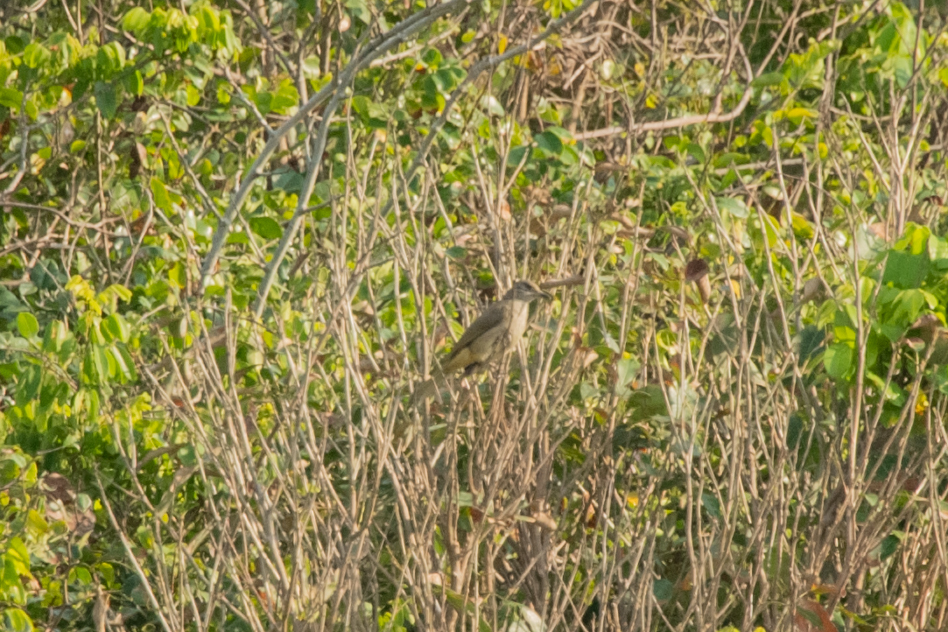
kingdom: Animalia
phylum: Chordata
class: Aves
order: Passeriformes
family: Pycnonotidae
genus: Pycnonotus
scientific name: Pycnonotus blanfordi
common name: Streak-eared bulbul
